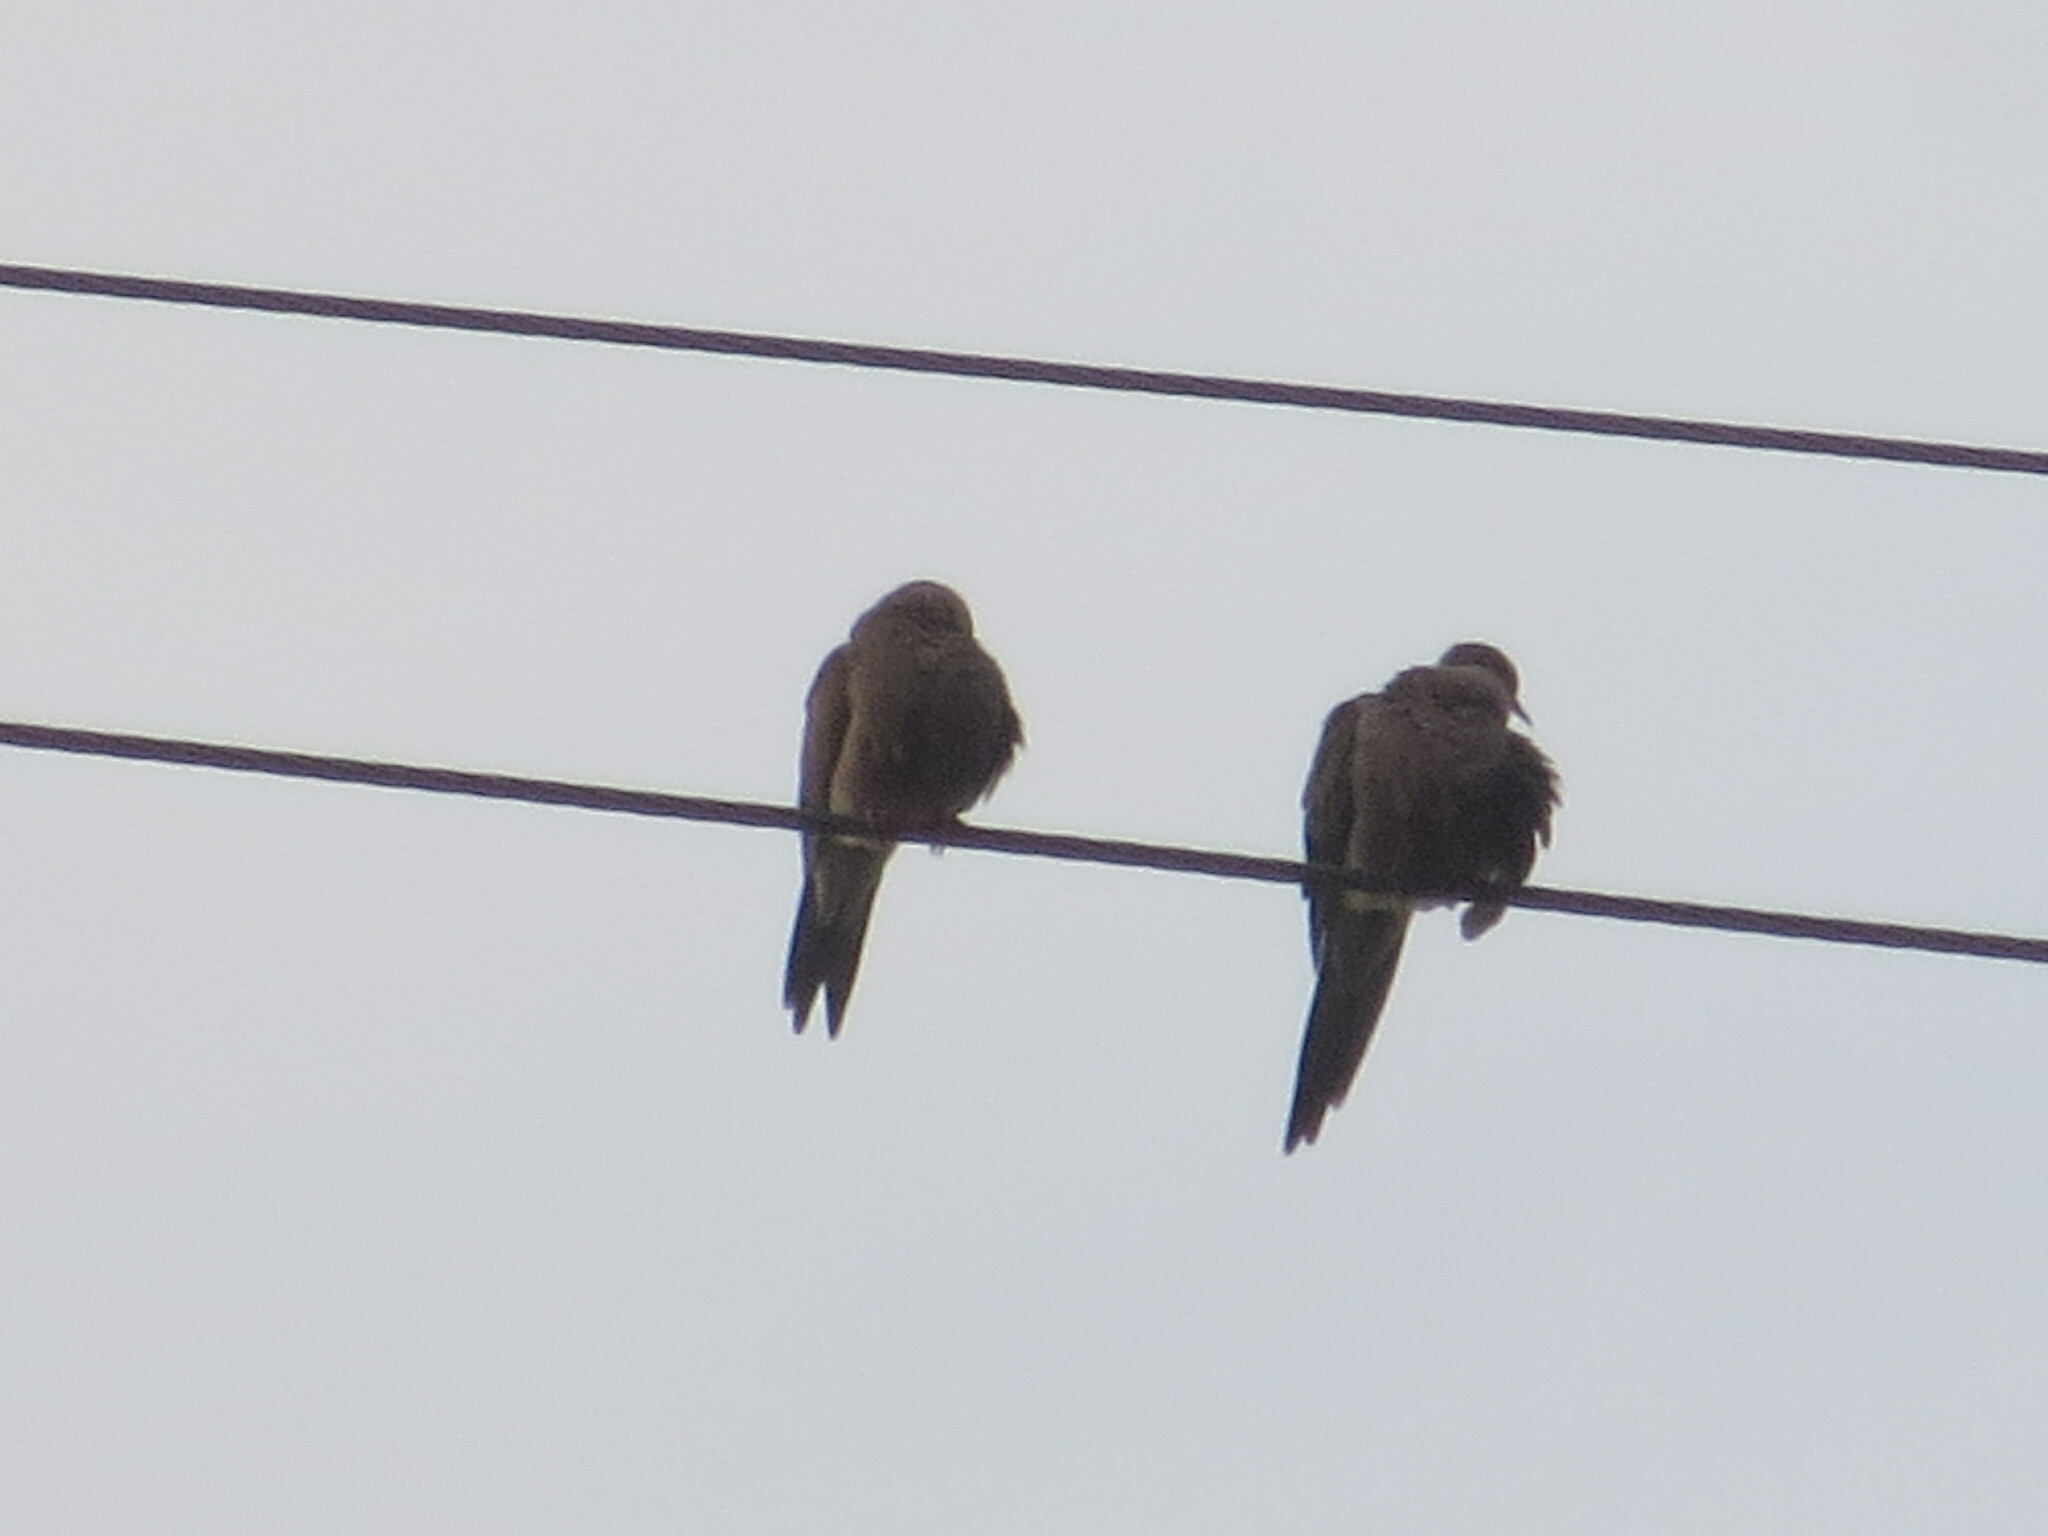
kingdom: Animalia
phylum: Chordata
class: Aves
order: Columbiformes
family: Columbidae
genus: Zenaida
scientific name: Zenaida macroura
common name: Mourning dove
